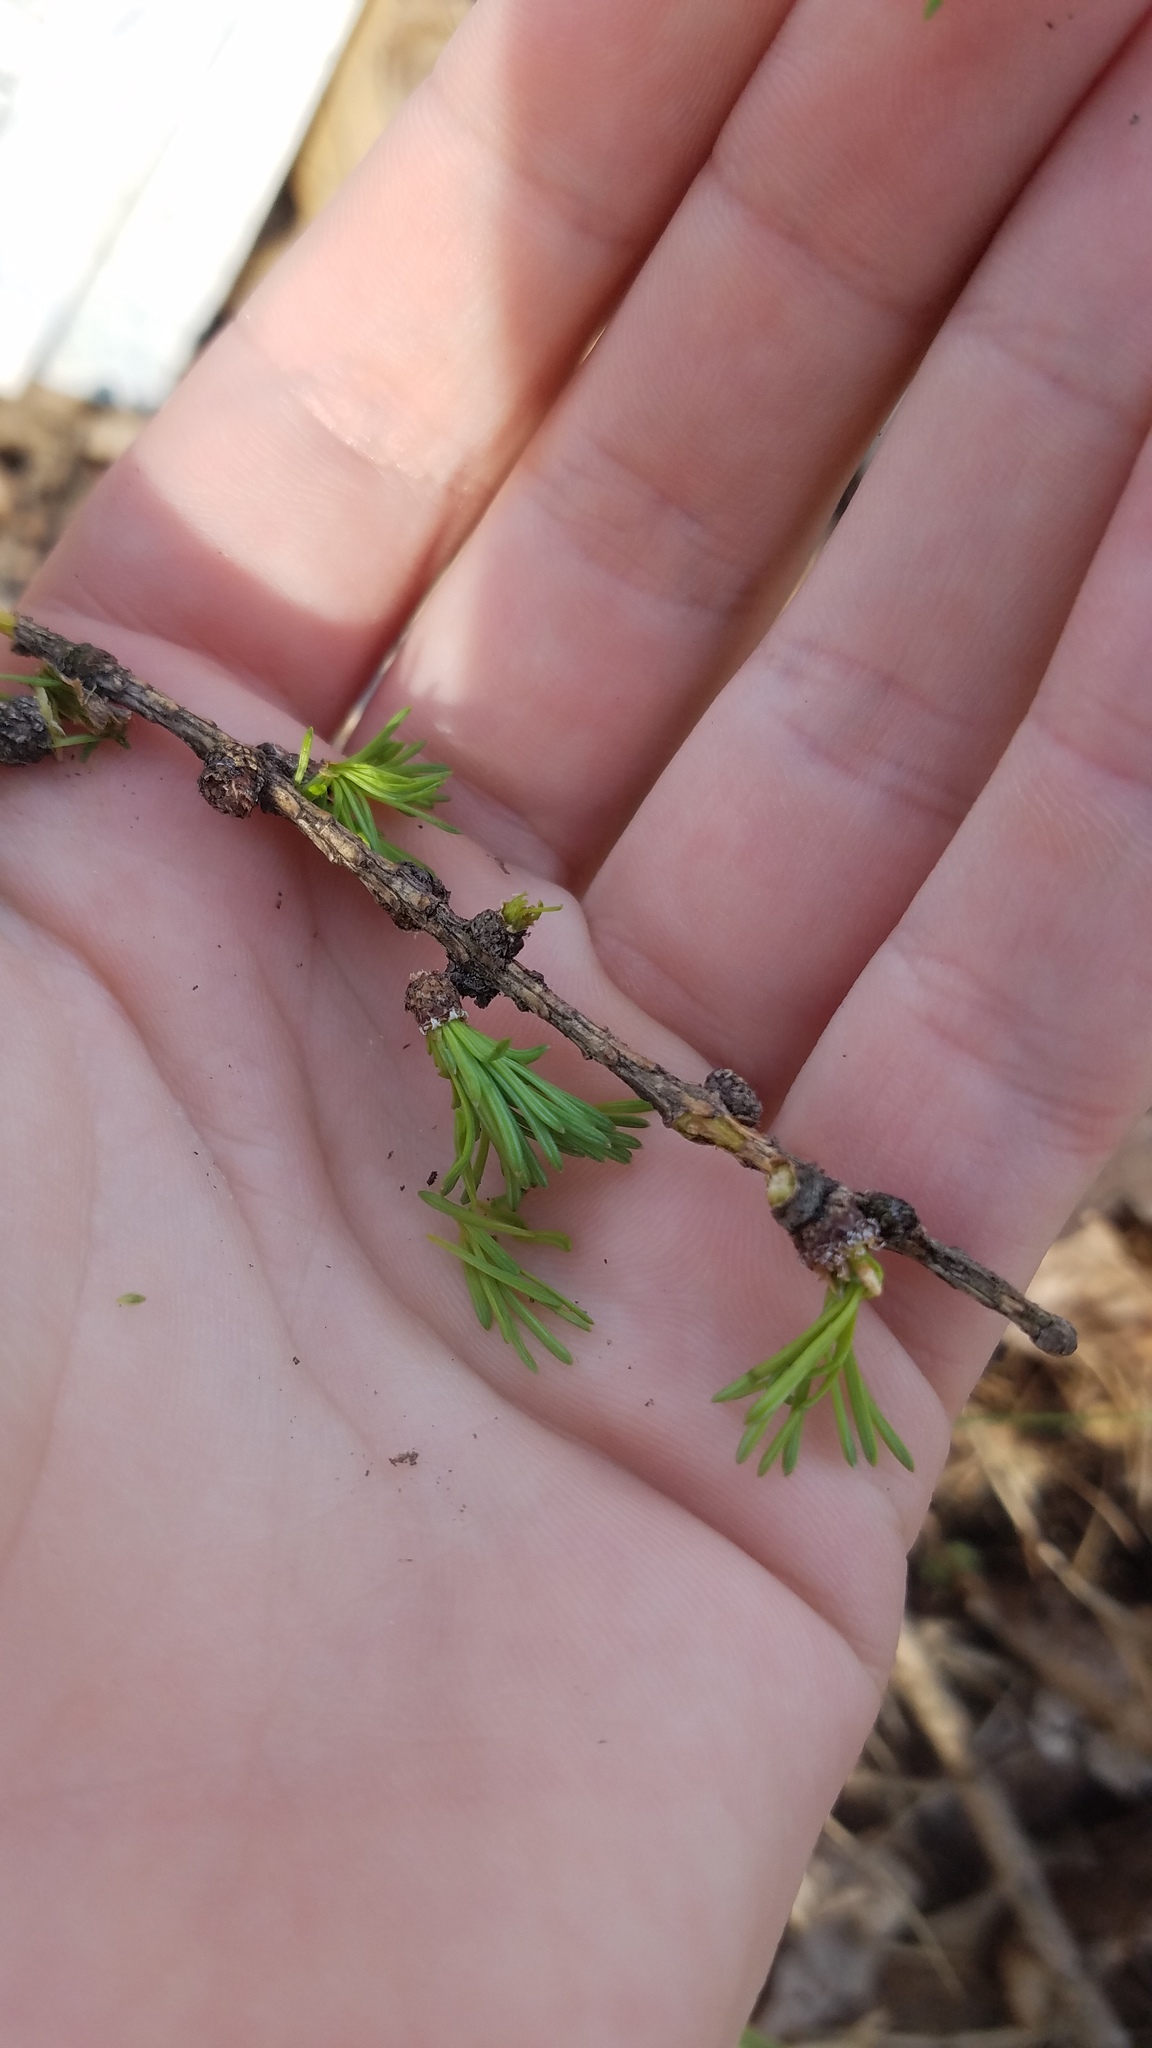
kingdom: Plantae
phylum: Tracheophyta
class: Pinopsida
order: Pinales
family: Pinaceae
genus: Larix
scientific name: Larix laricina
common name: American larch
